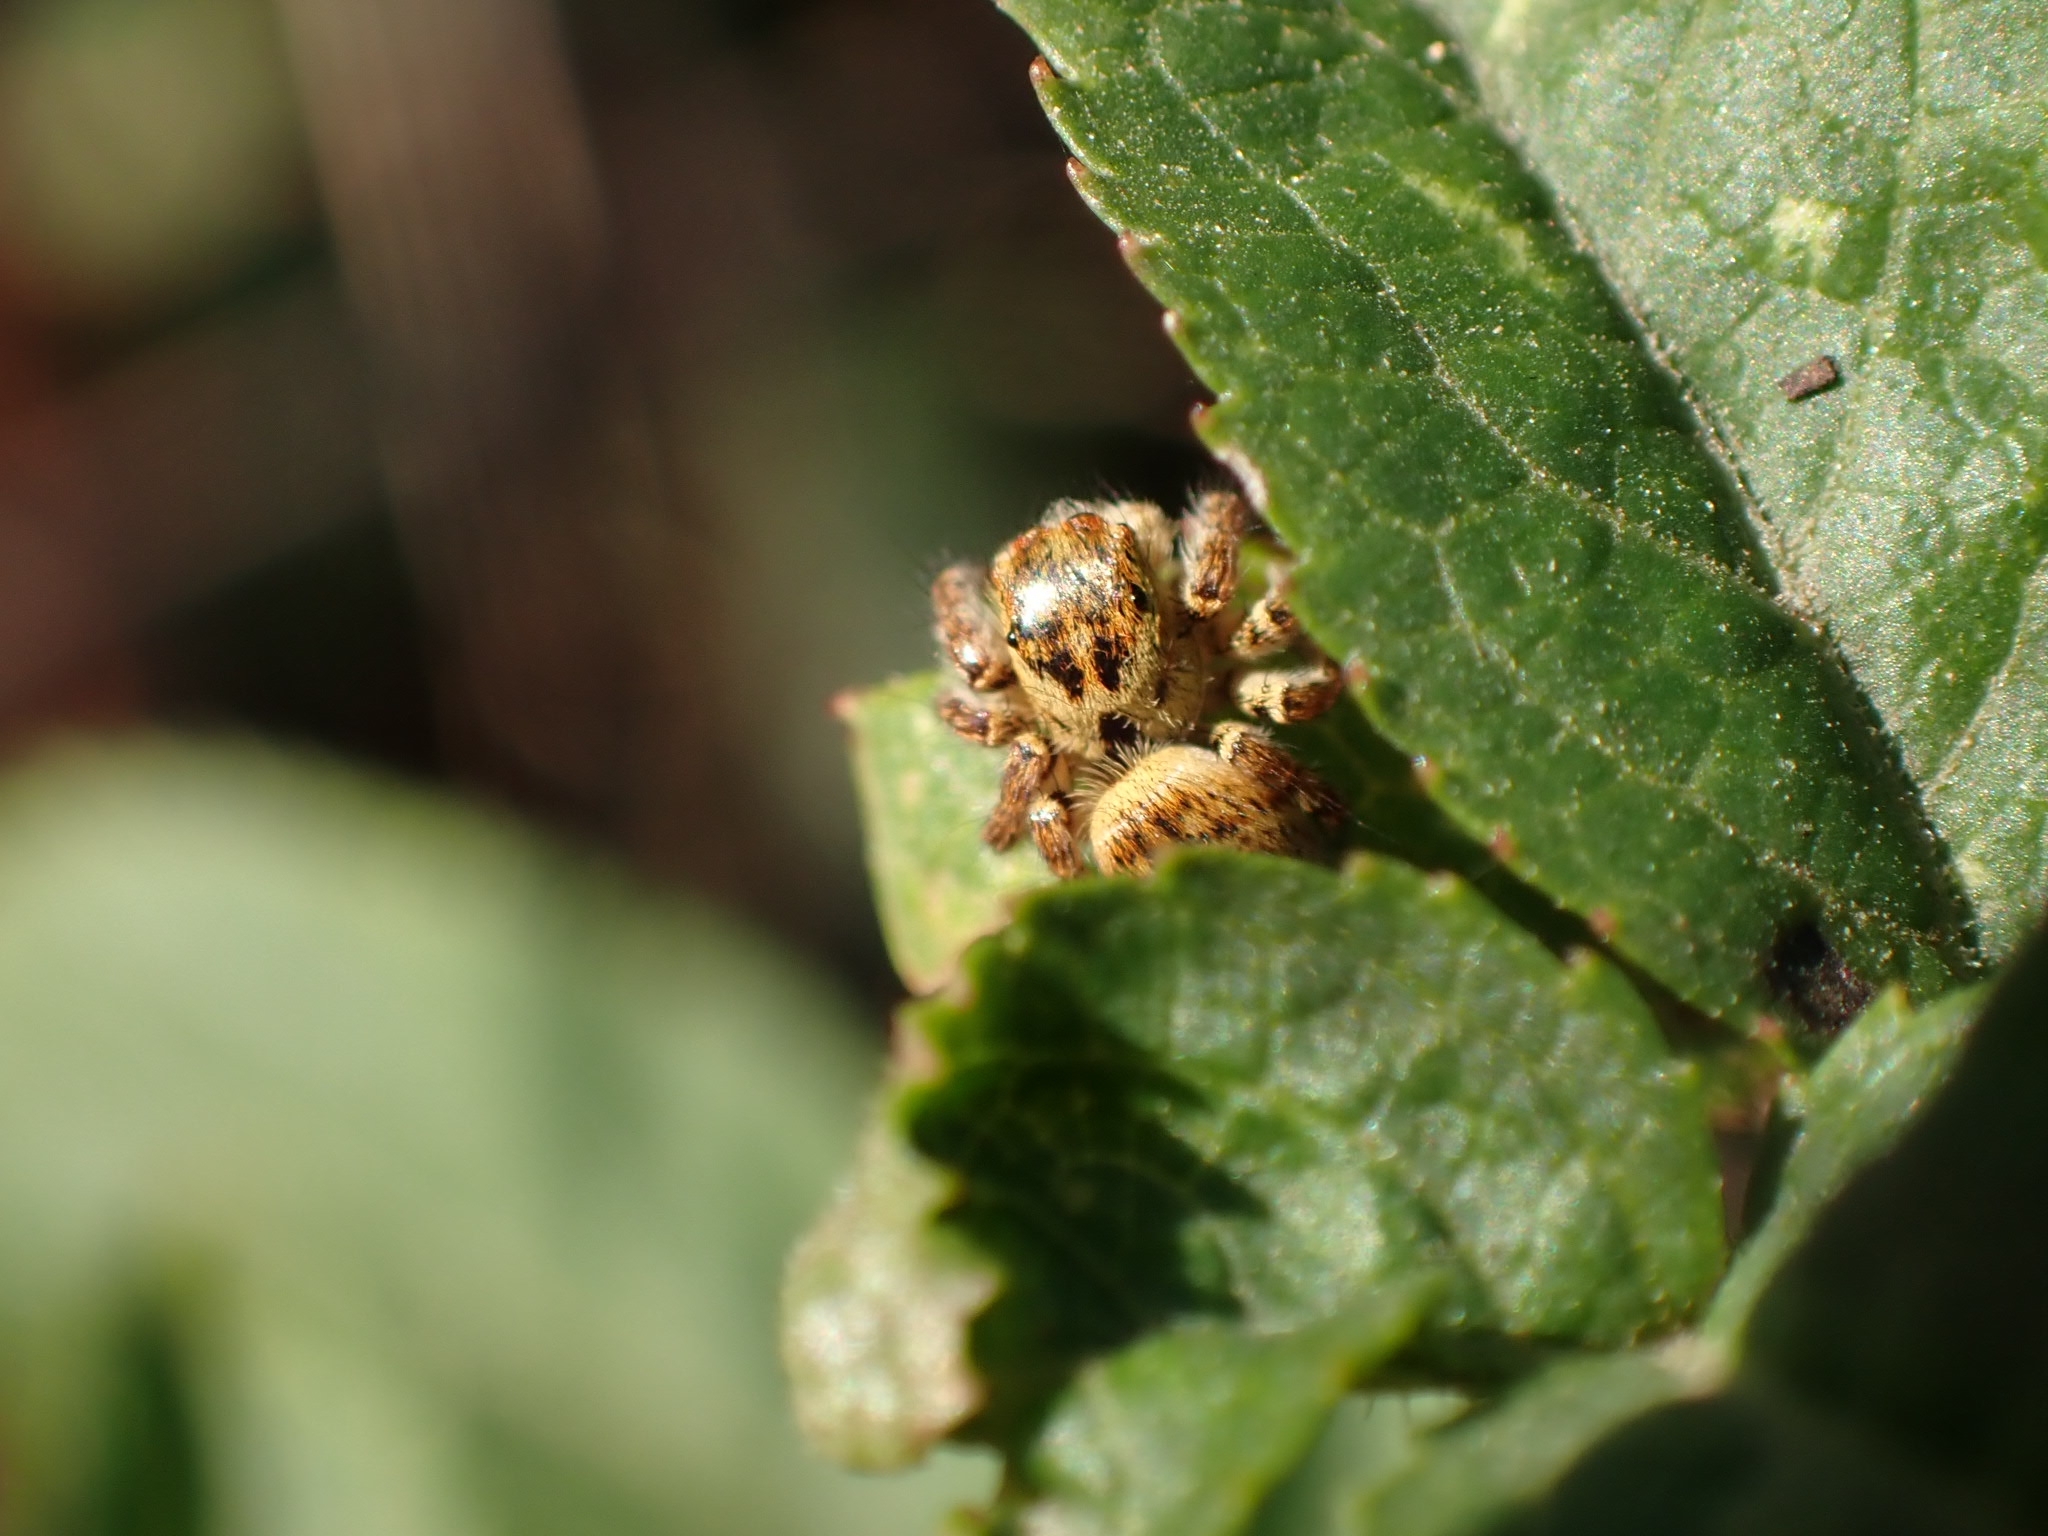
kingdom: Animalia
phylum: Arthropoda
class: Arachnida
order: Araneae
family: Salticidae
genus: Carrhotus
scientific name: Carrhotus xanthogramma
